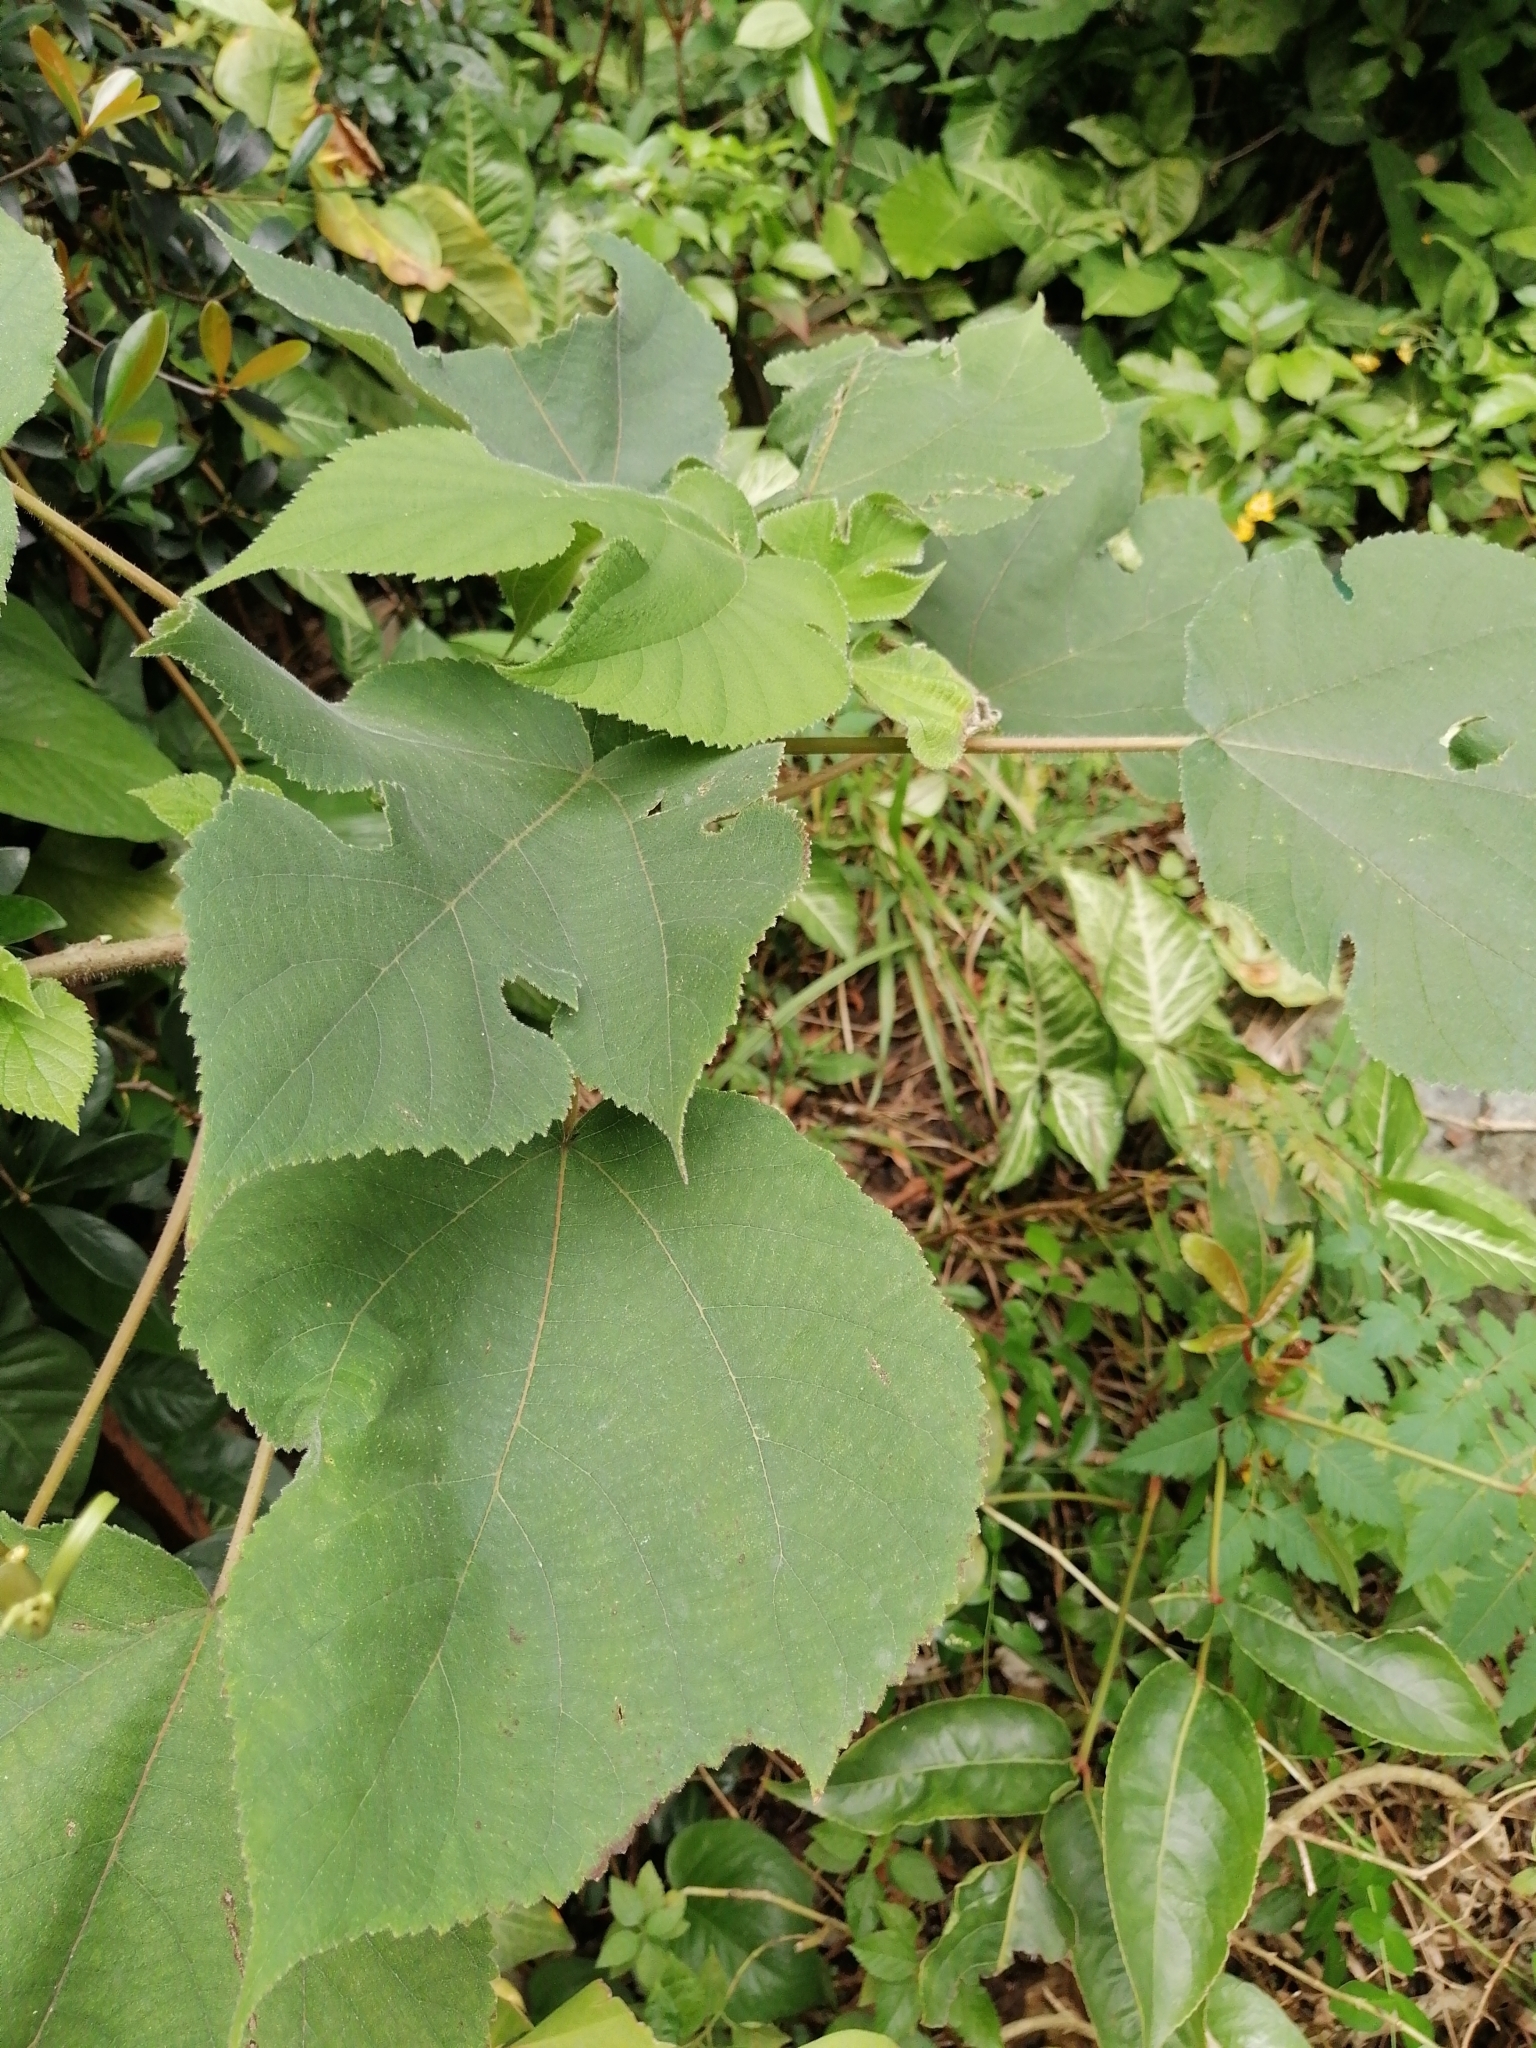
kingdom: Plantae
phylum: Tracheophyta
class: Magnoliopsida
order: Rosales
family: Moraceae
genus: Broussonetia
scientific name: Broussonetia papyrifera
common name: Paper mulberry
